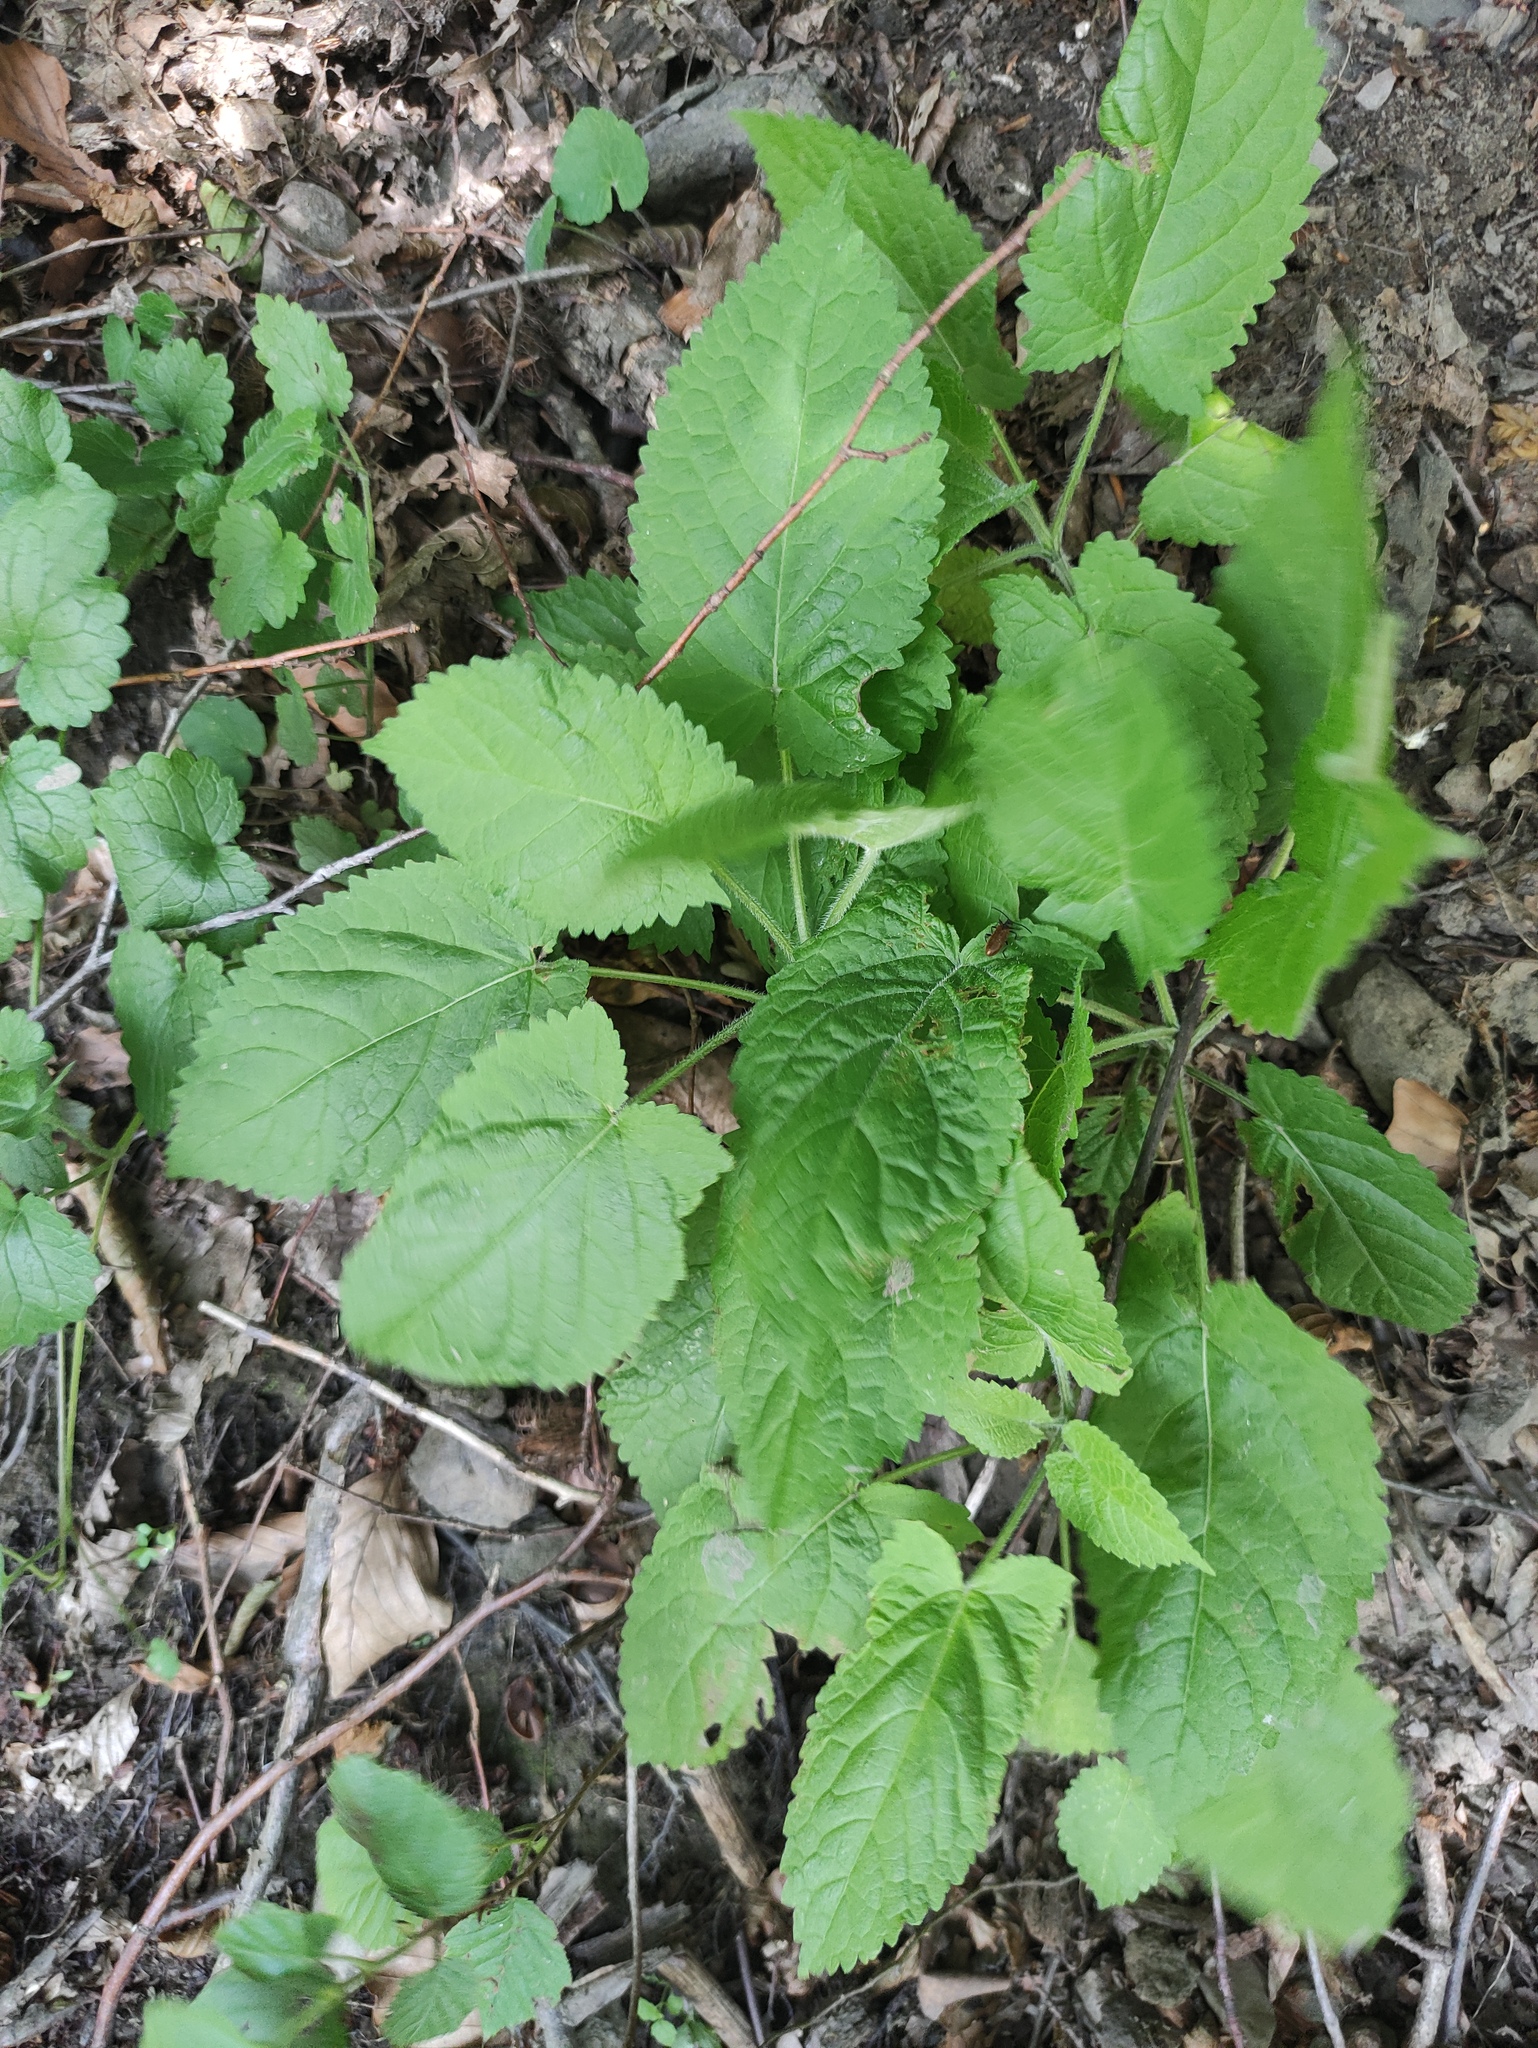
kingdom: Plantae
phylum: Tracheophyta
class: Magnoliopsida
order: Lamiales
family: Lamiaceae
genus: Salvia
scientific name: Salvia glutinosa
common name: Sticky clary
